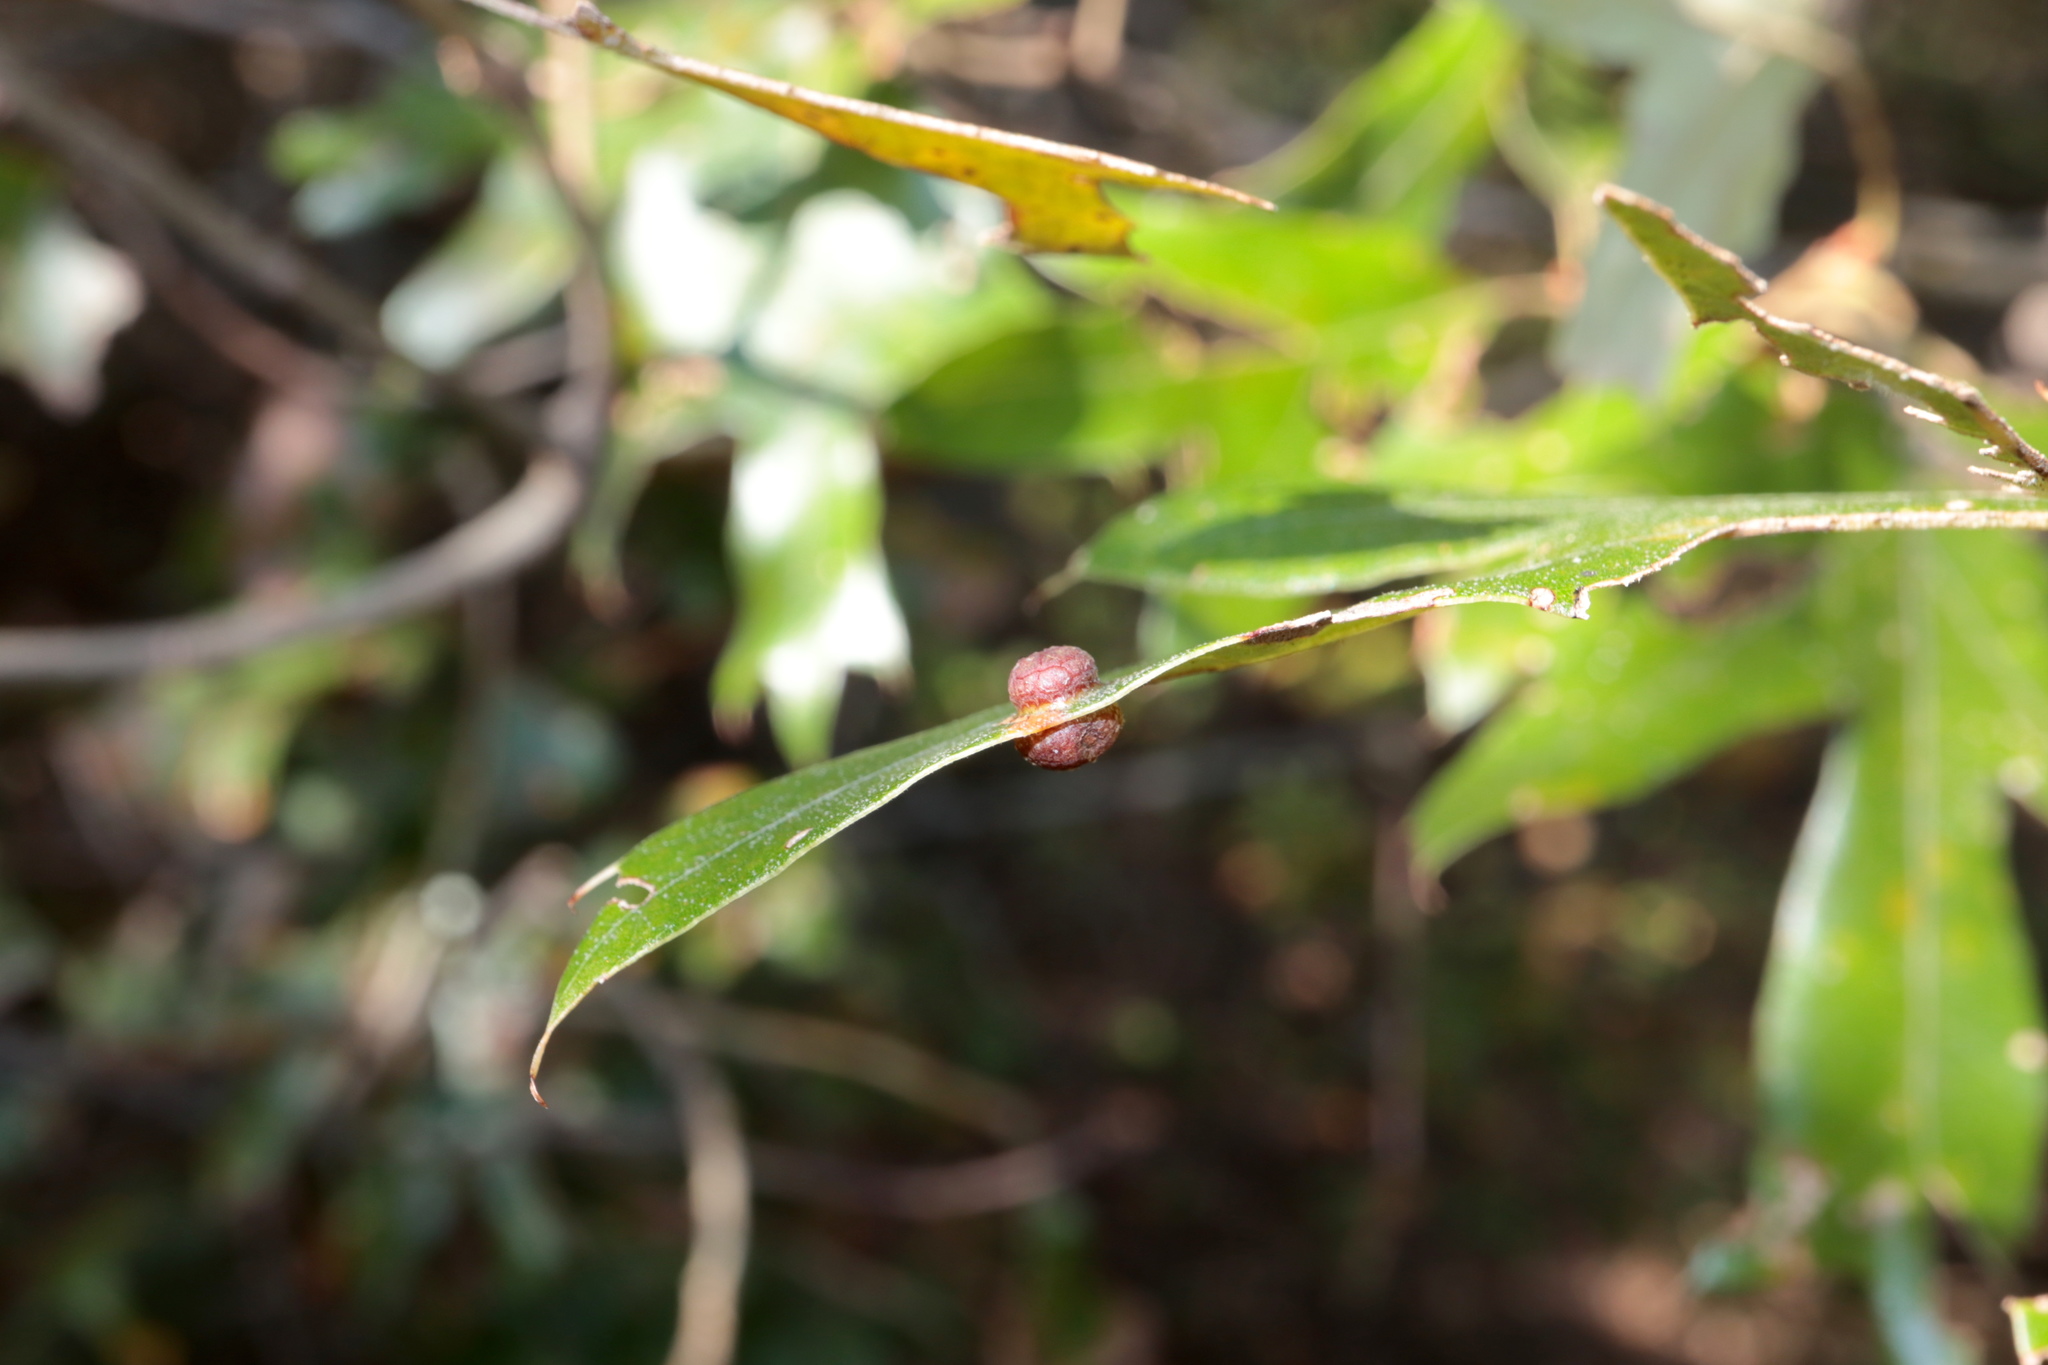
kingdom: Animalia
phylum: Arthropoda
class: Insecta
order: Diptera
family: Cecidomyiidae
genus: Polystepha
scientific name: Polystepha symmetrica
